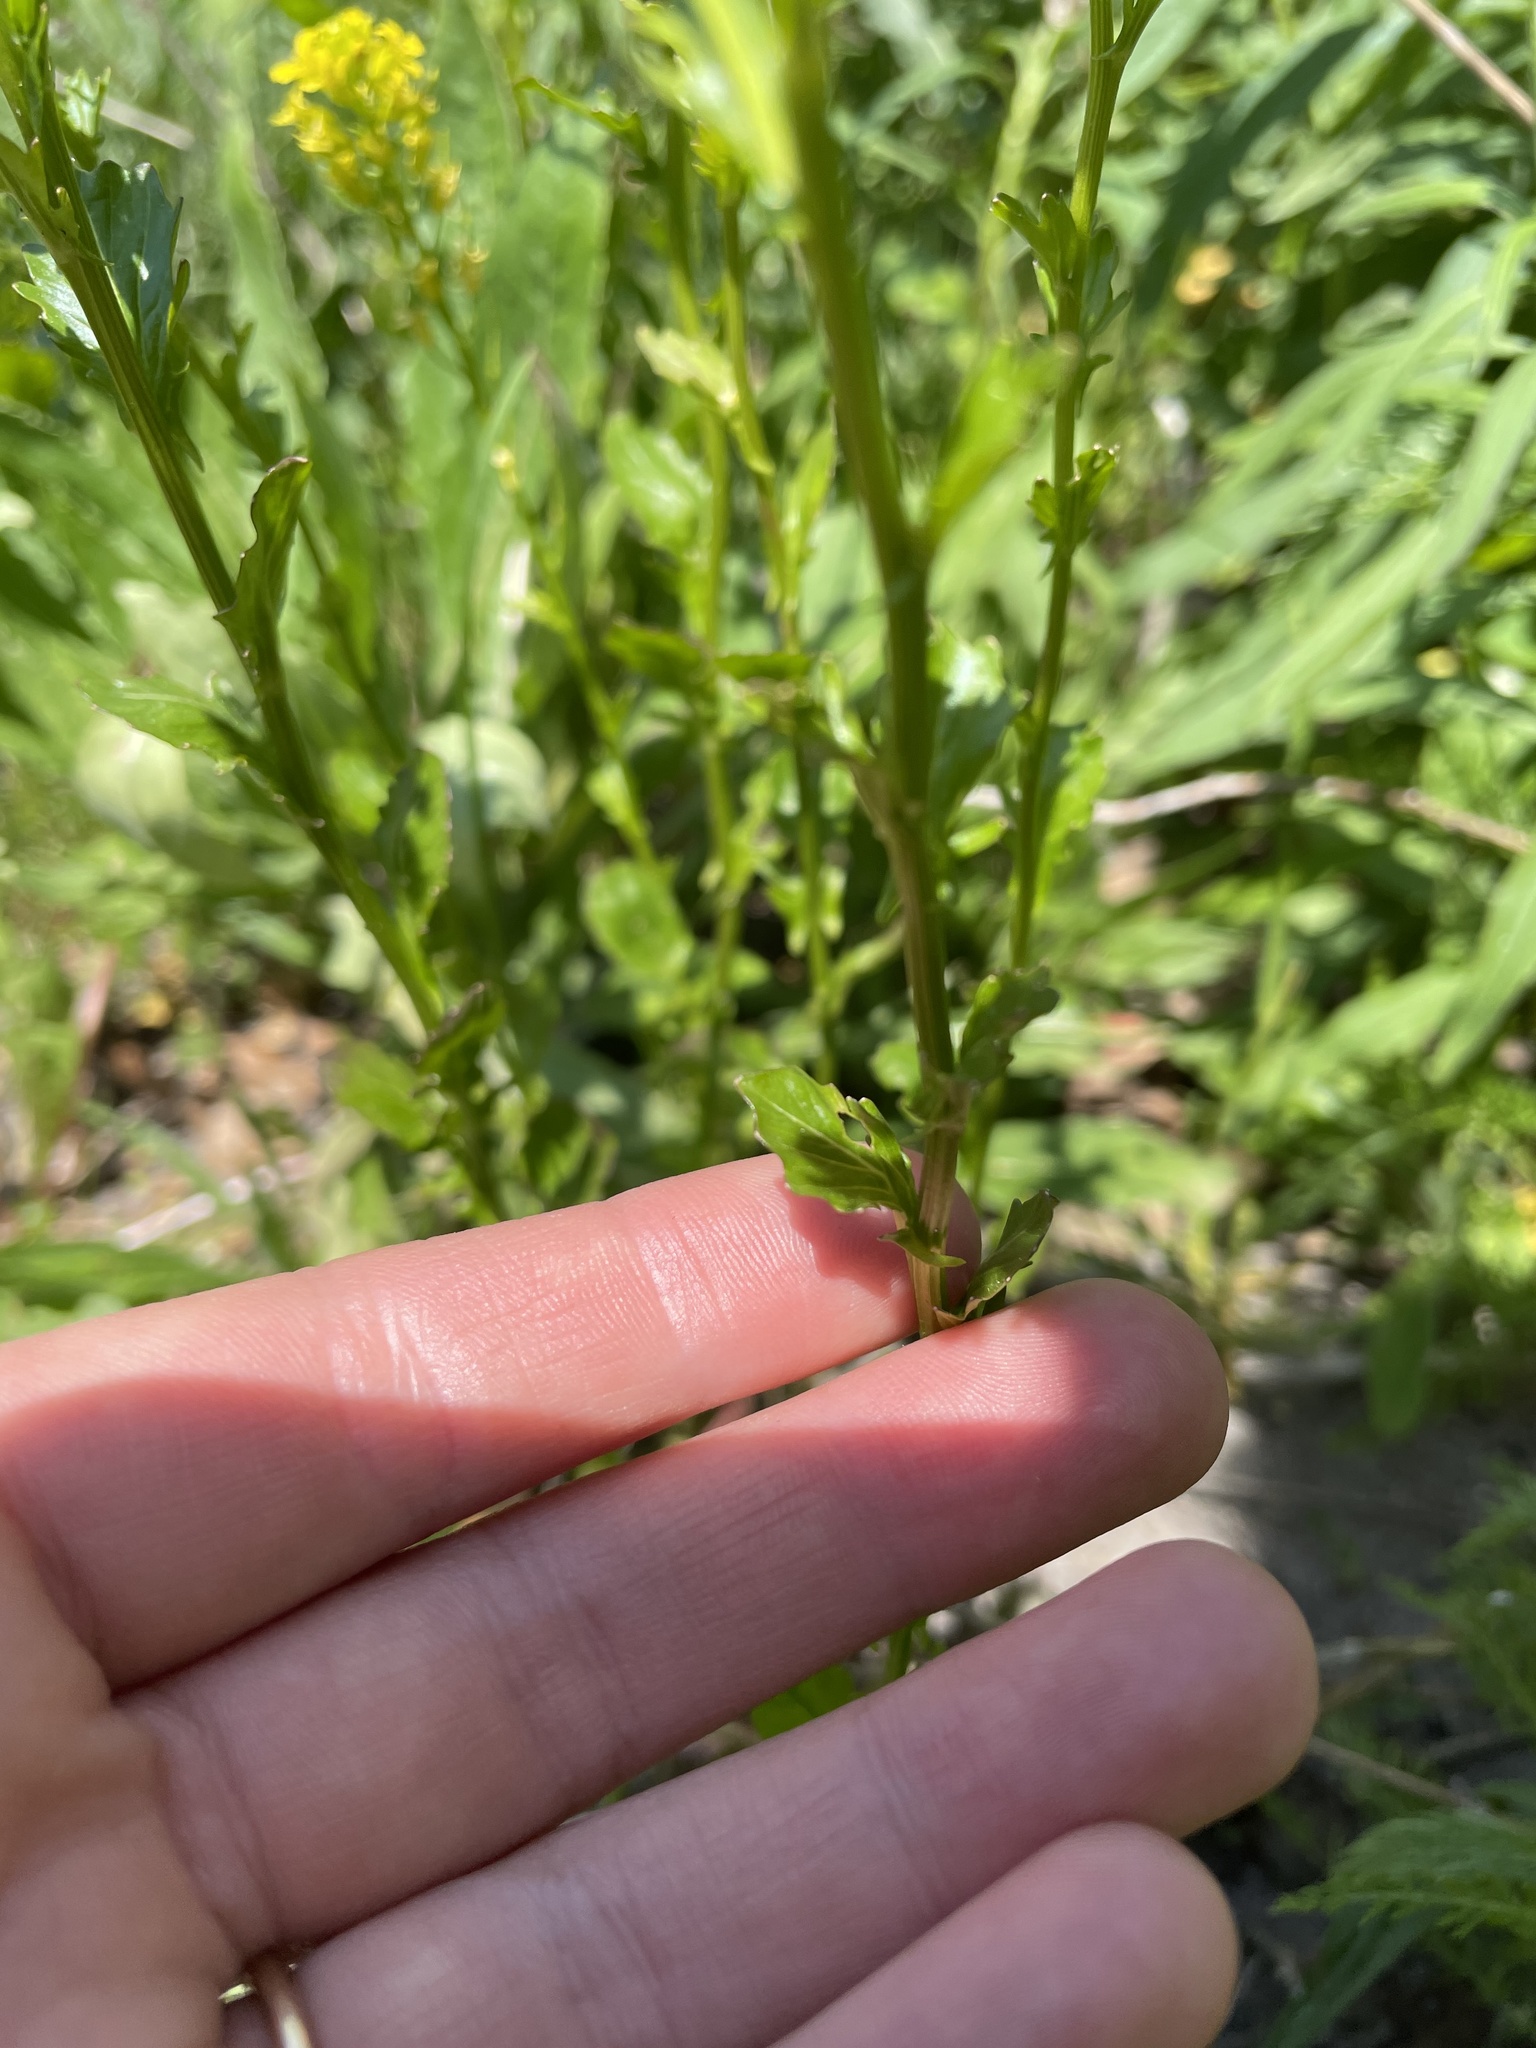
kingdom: Plantae
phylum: Tracheophyta
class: Magnoliopsida
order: Brassicales
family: Brassicaceae
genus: Barbarea
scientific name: Barbarea vulgaris
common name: Cressy-greens
